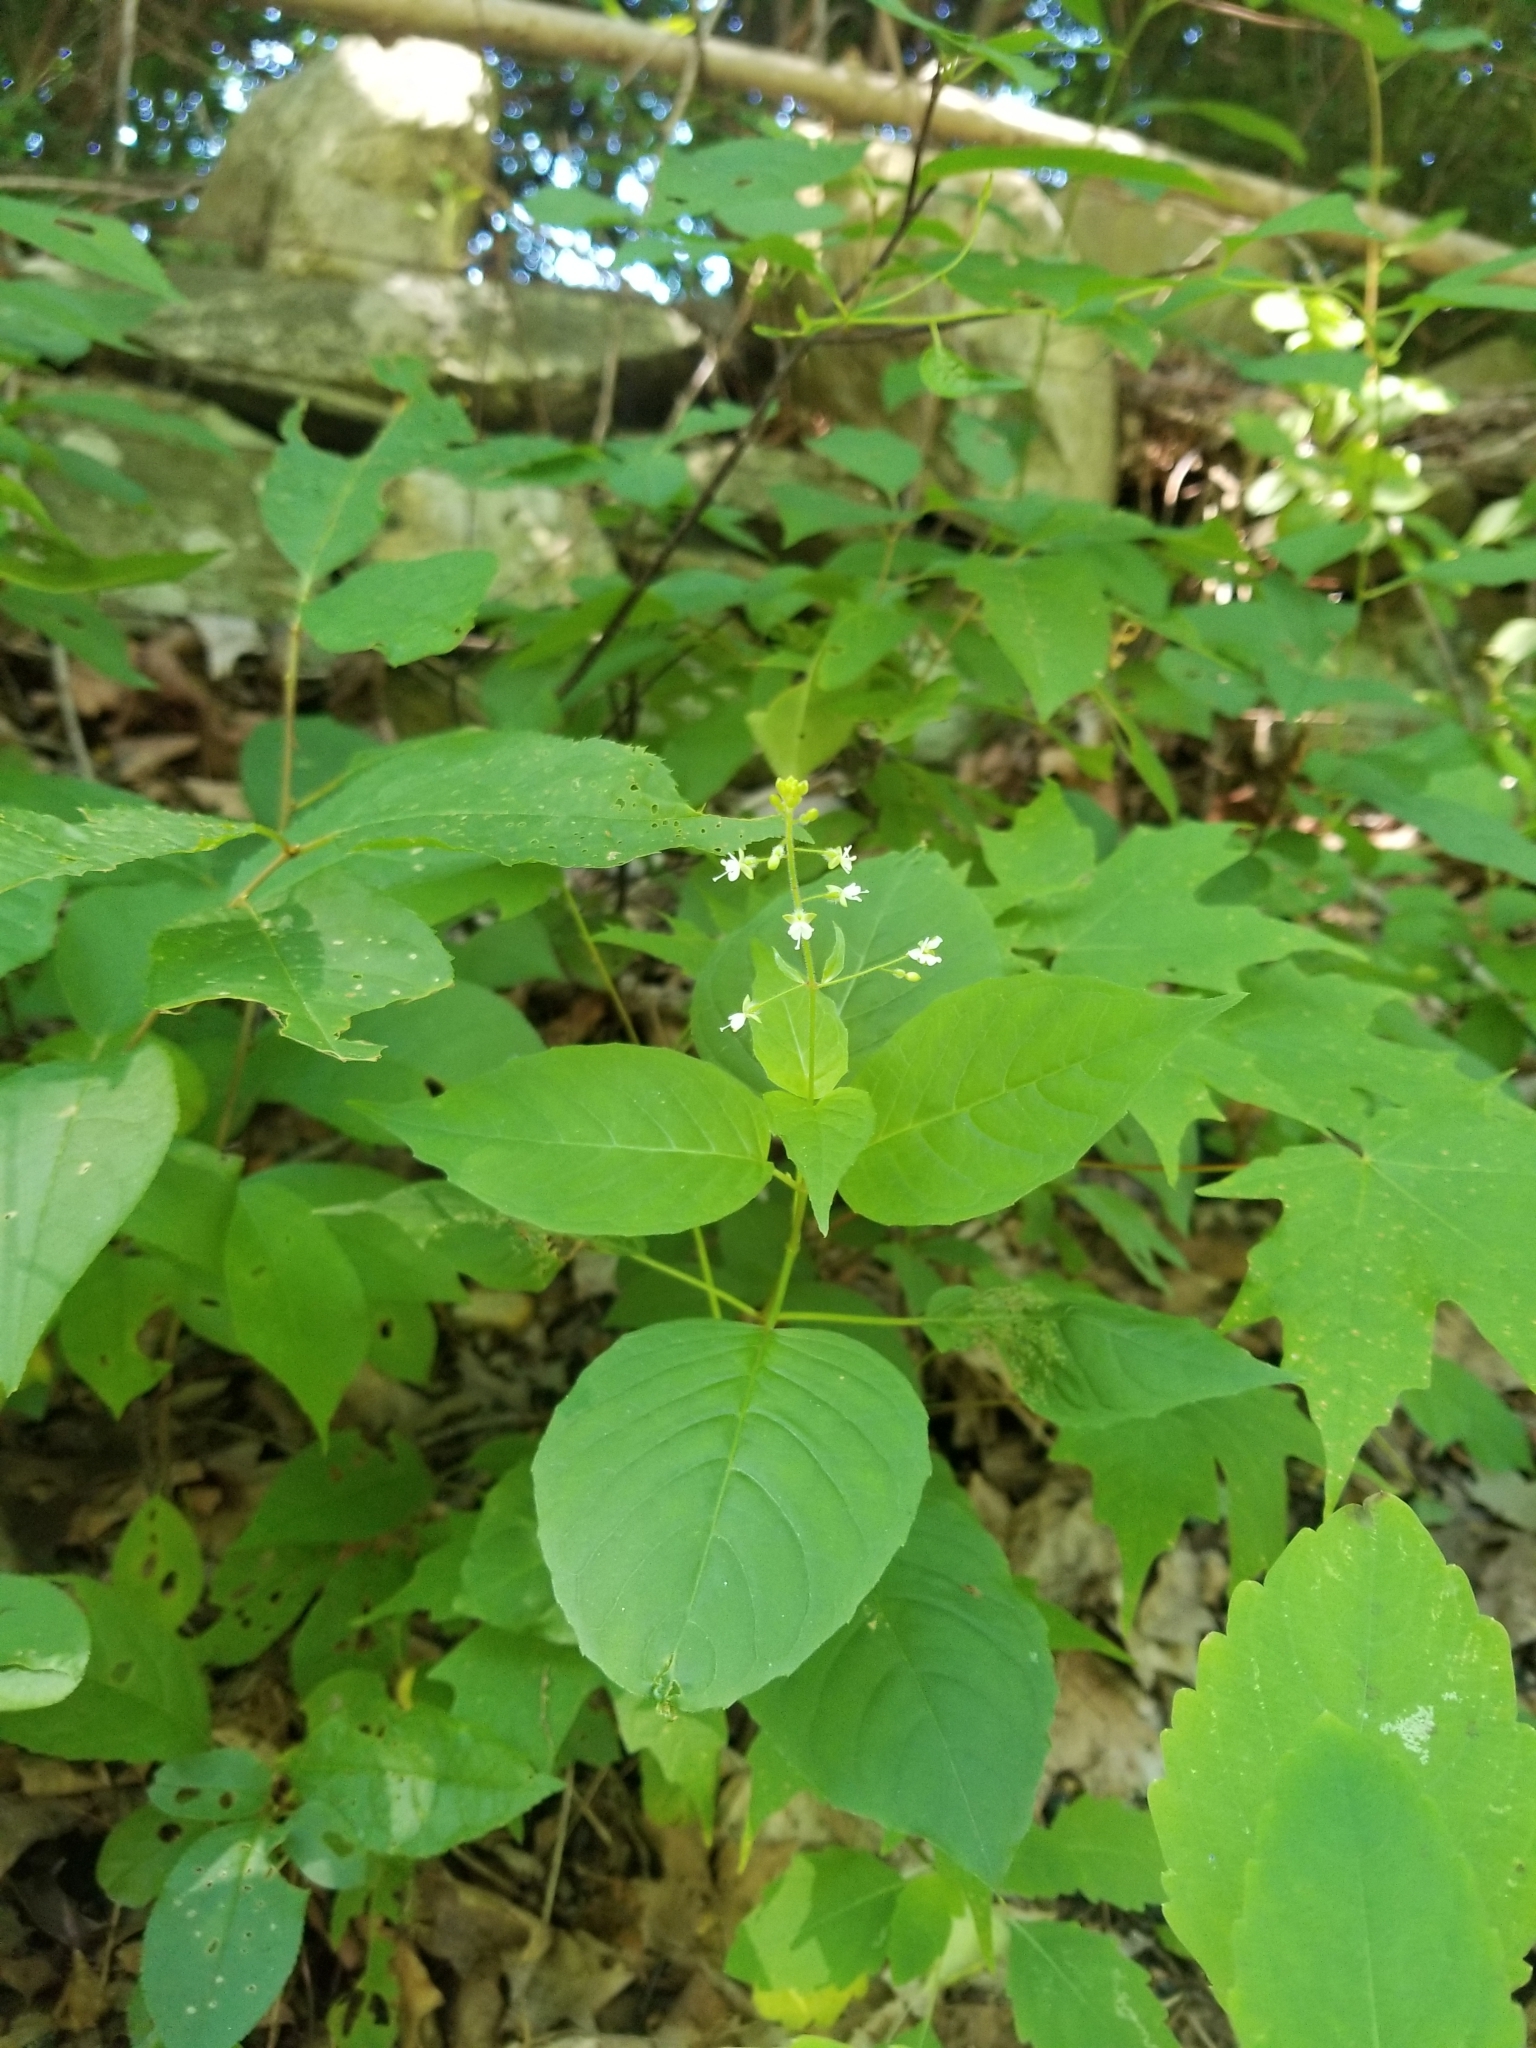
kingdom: Plantae
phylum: Tracheophyta
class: Magnoliopsida
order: Myrtales
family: Onagraceae
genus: Circaea
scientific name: Circaea canadensis
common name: Broad-leaved enchanter's nightshade
